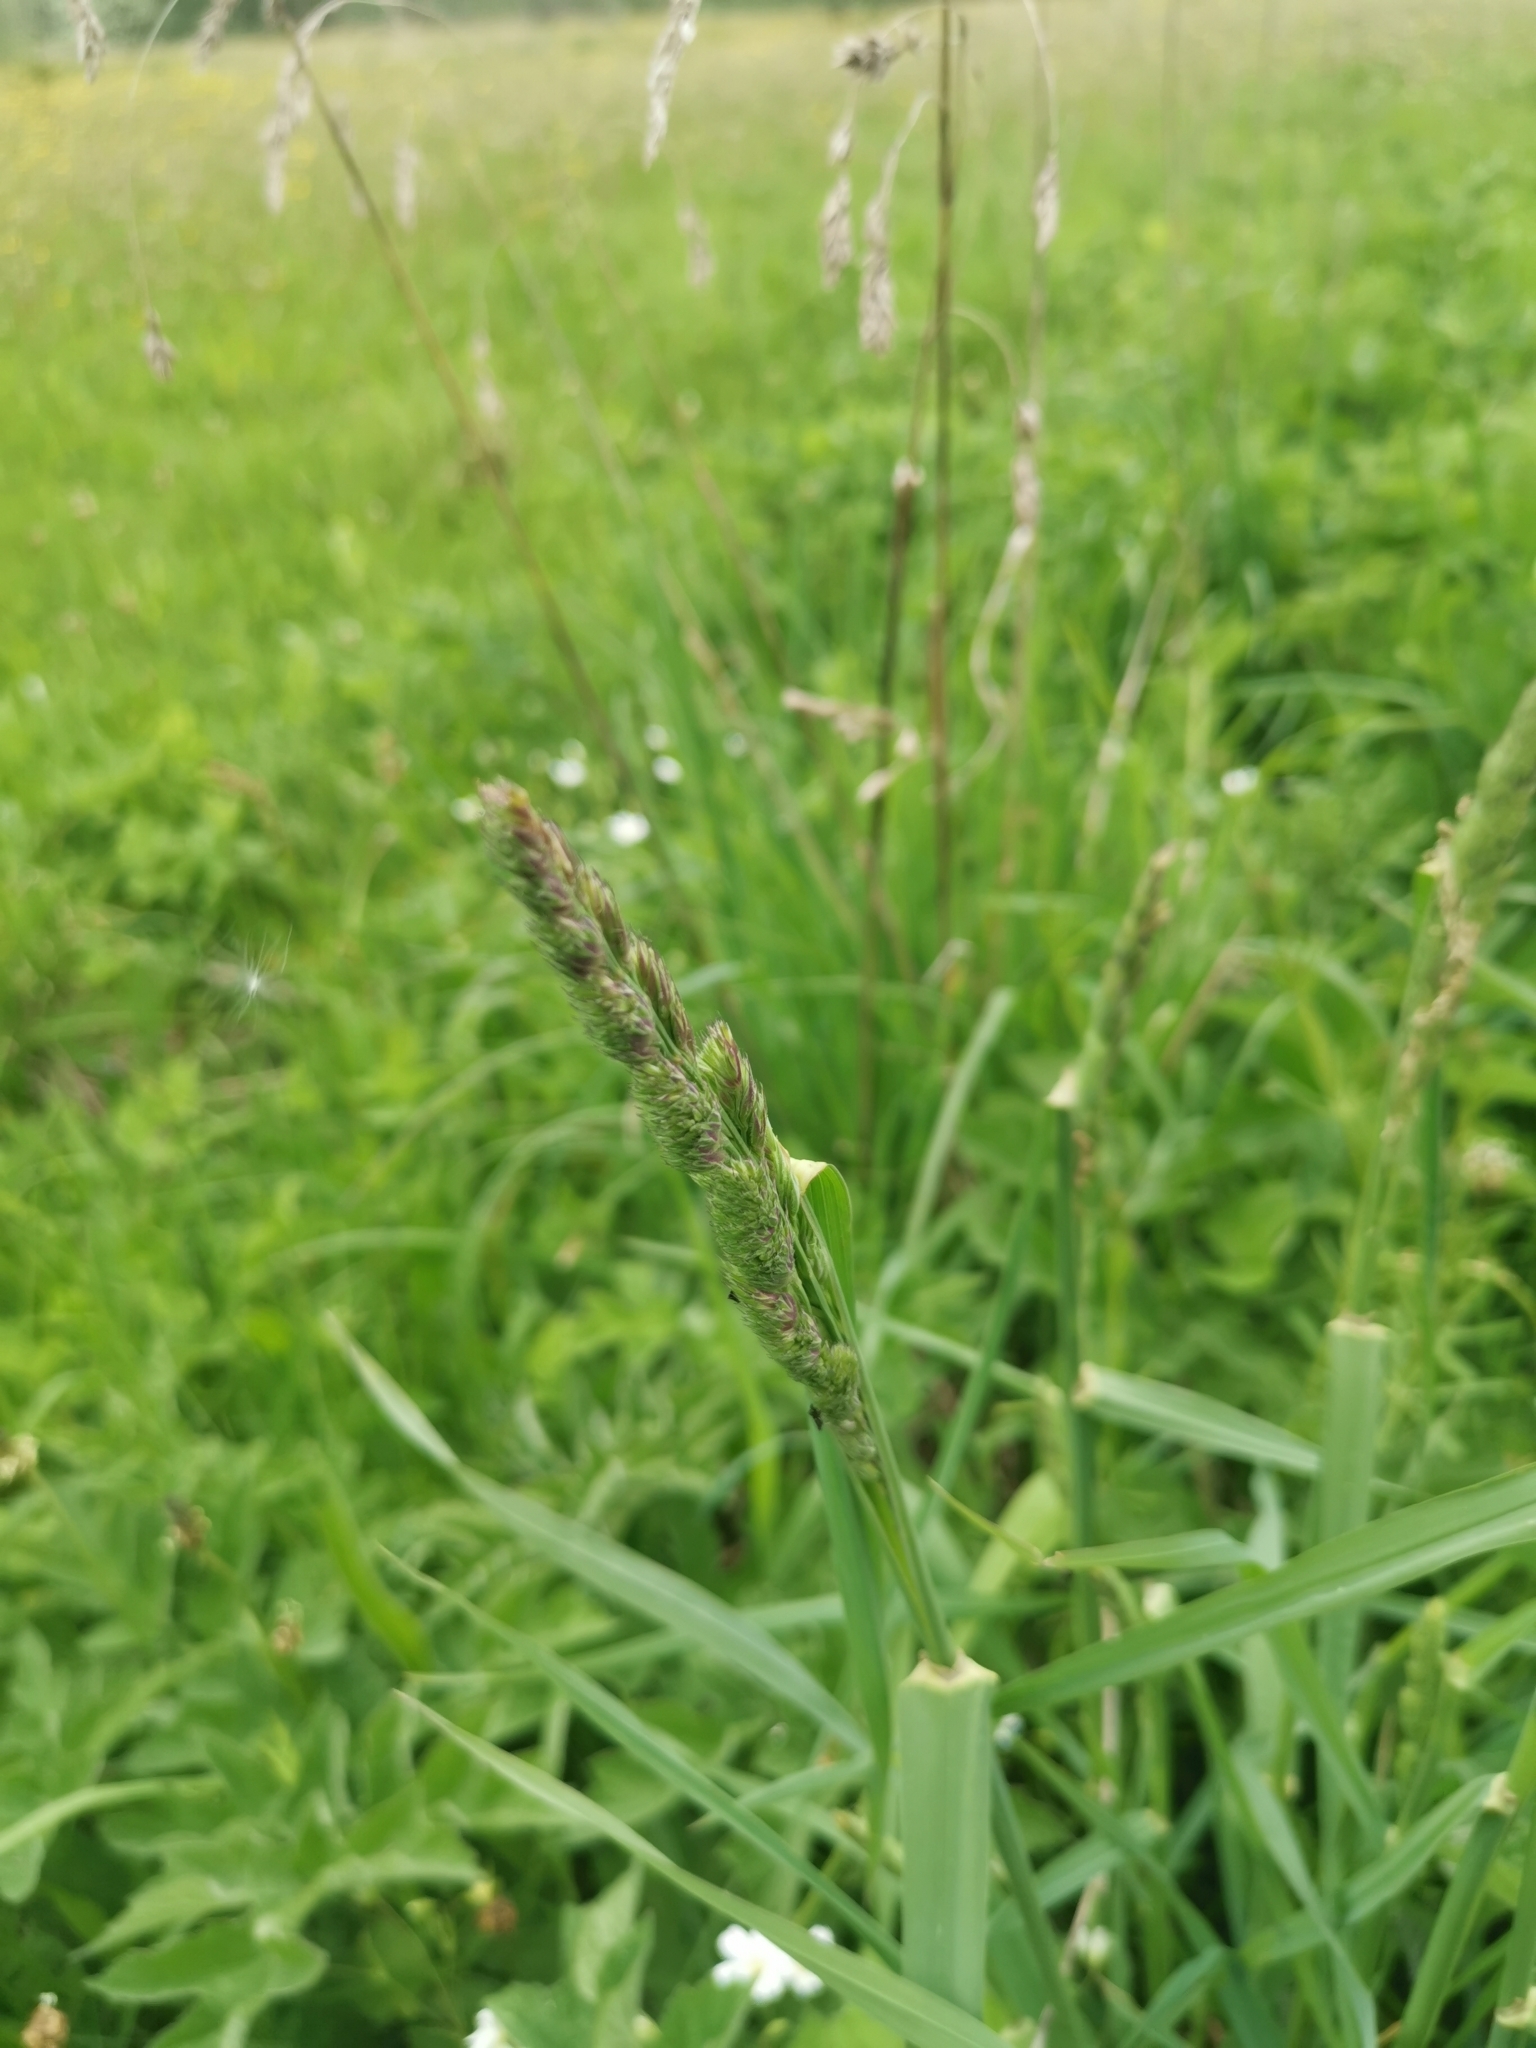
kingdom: Plantae
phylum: Tracheophyta
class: Liliopsida
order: Poales
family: Poaceae
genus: Dactylis
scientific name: Dactylis glomerata
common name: Orchardgrass
